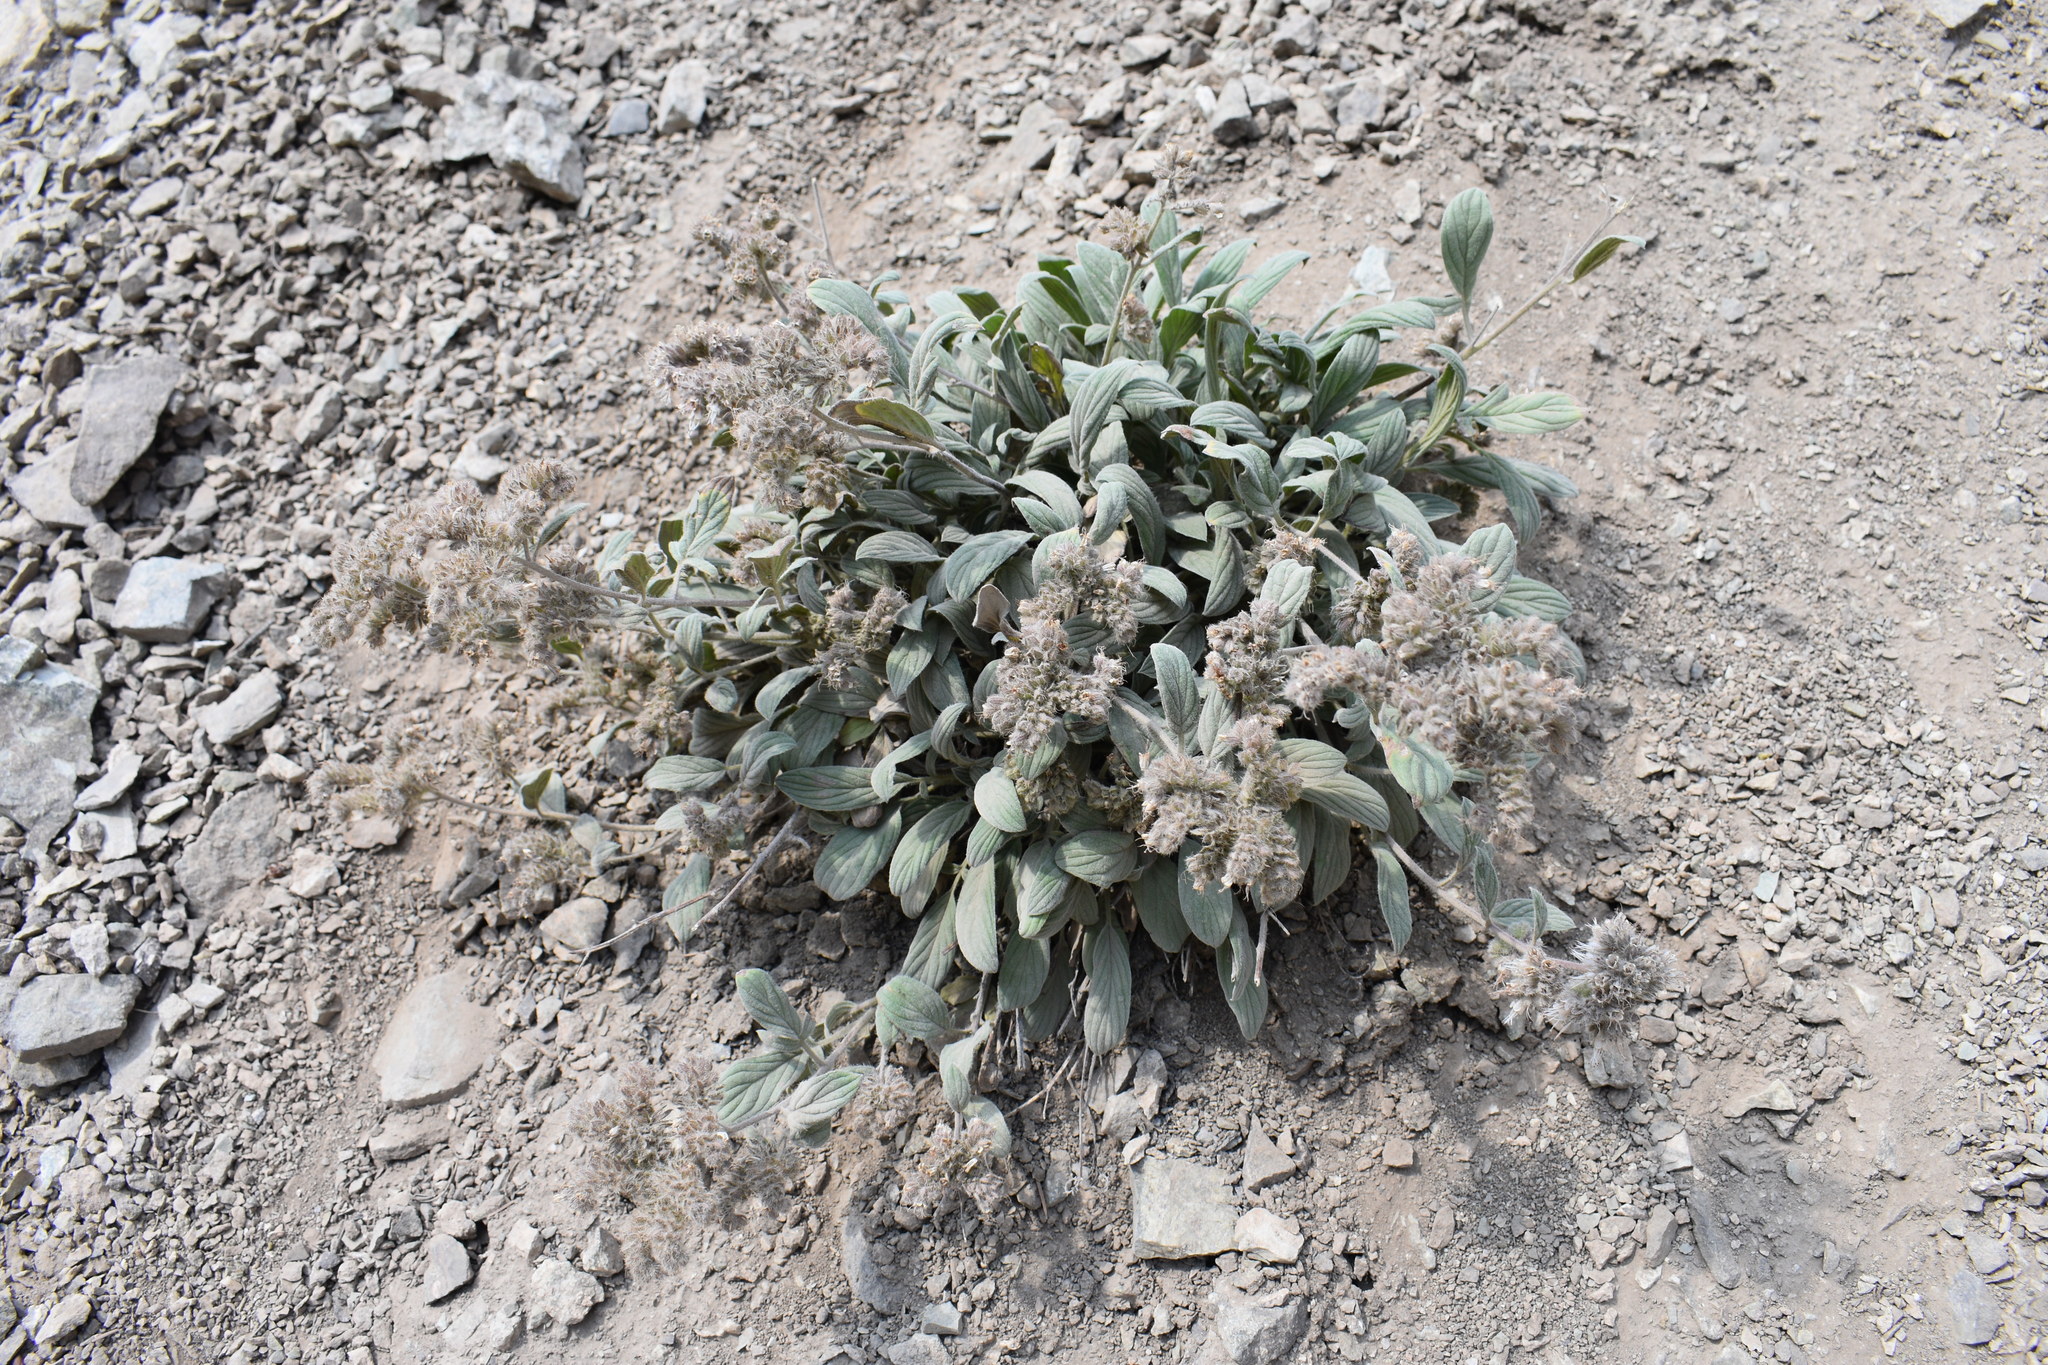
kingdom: Plantae
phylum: Tracheophyta
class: Magnoliopsida
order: Boraginales
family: Hydrophyllaceae
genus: Phacelia
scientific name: Phacelia hastata
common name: Silver-leaved phacelia
